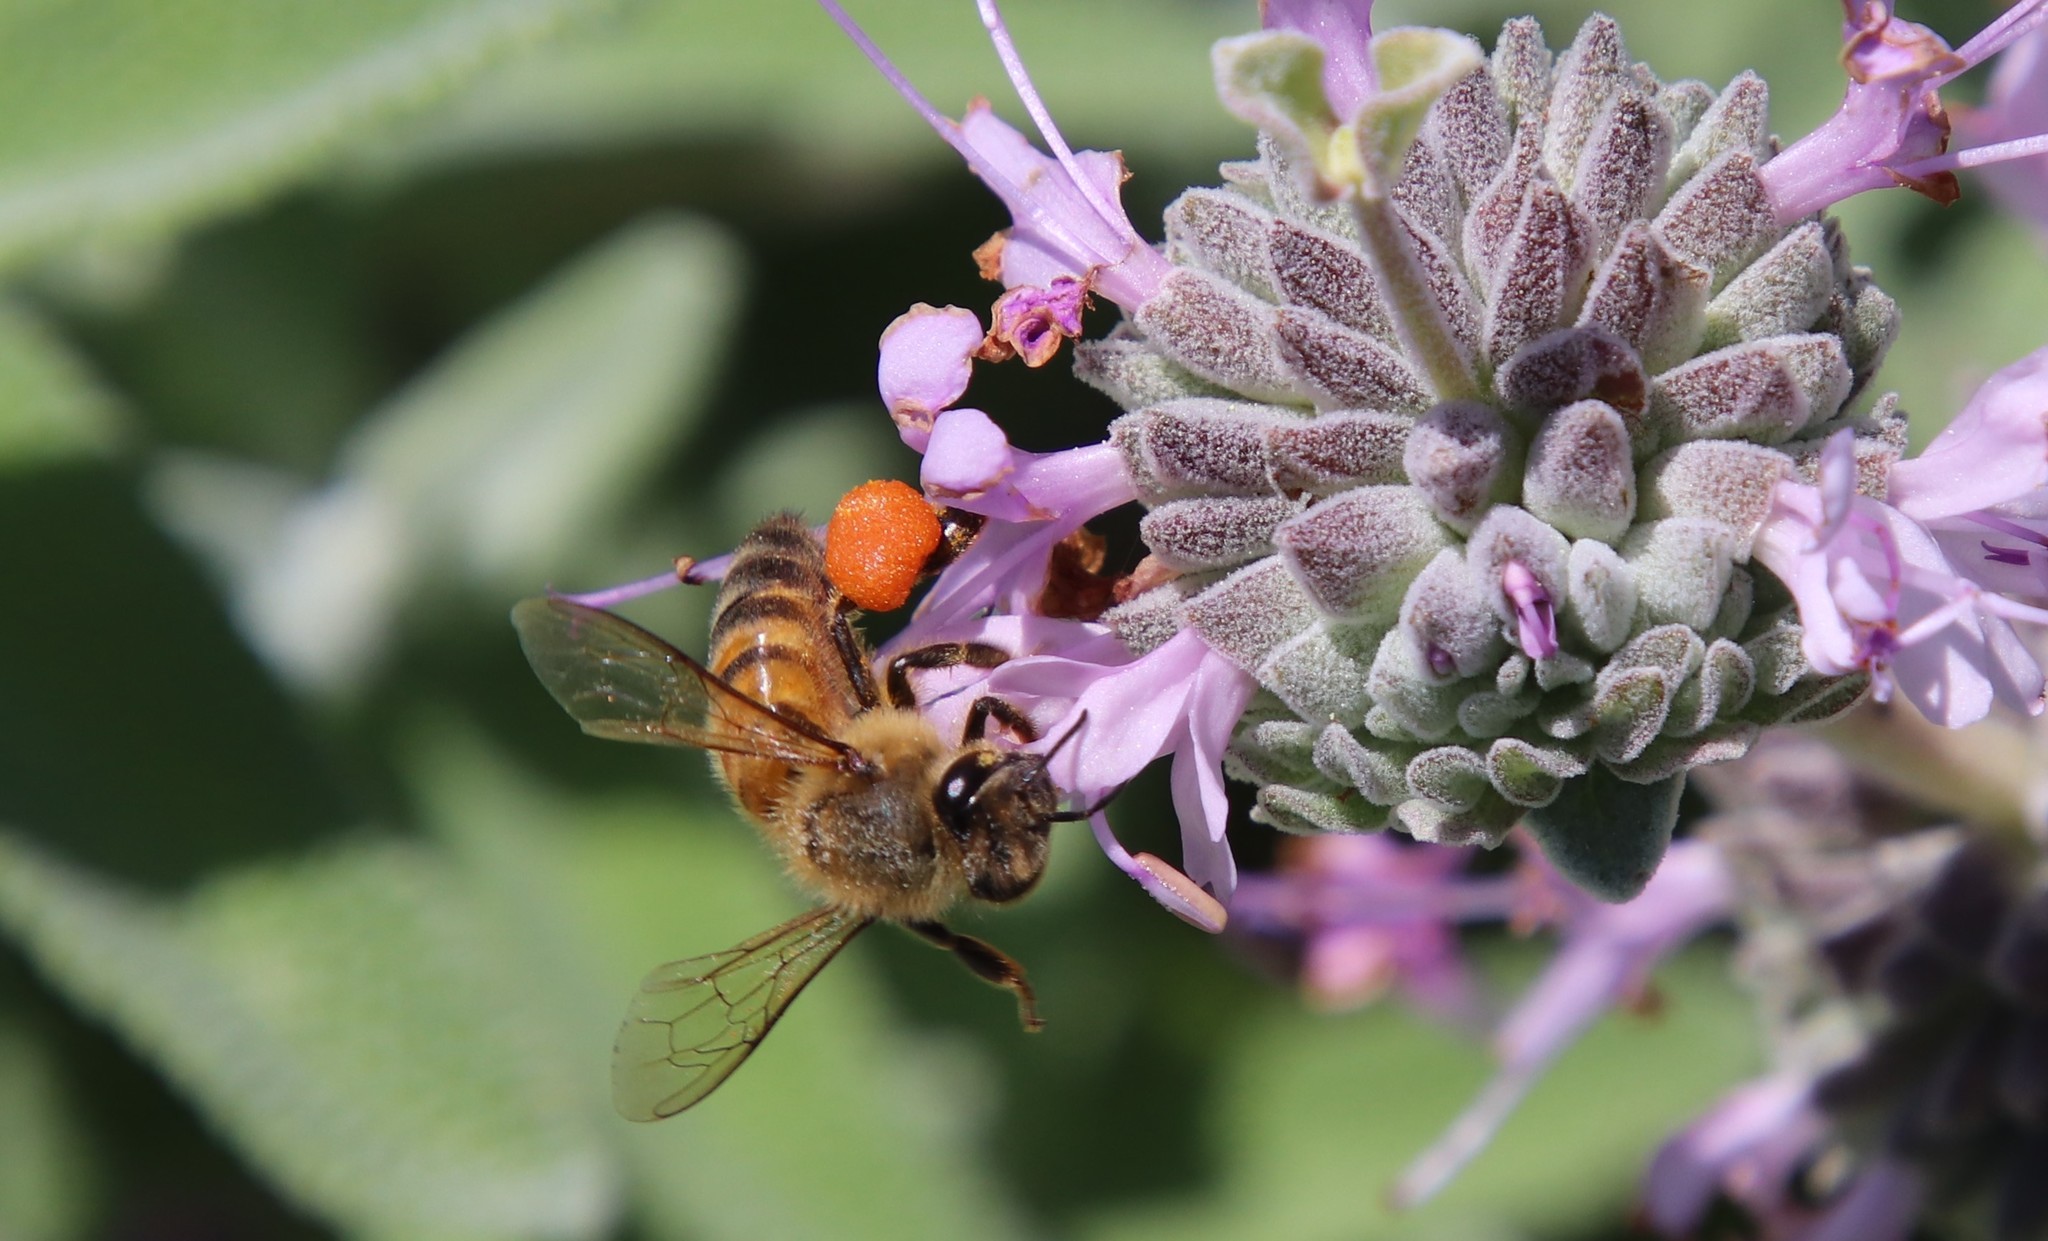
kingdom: Animalia
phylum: Arthropoda
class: Insecta
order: Hymenoptera
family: Apidae
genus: Apis
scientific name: Apis mellifera
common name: Honey bee
